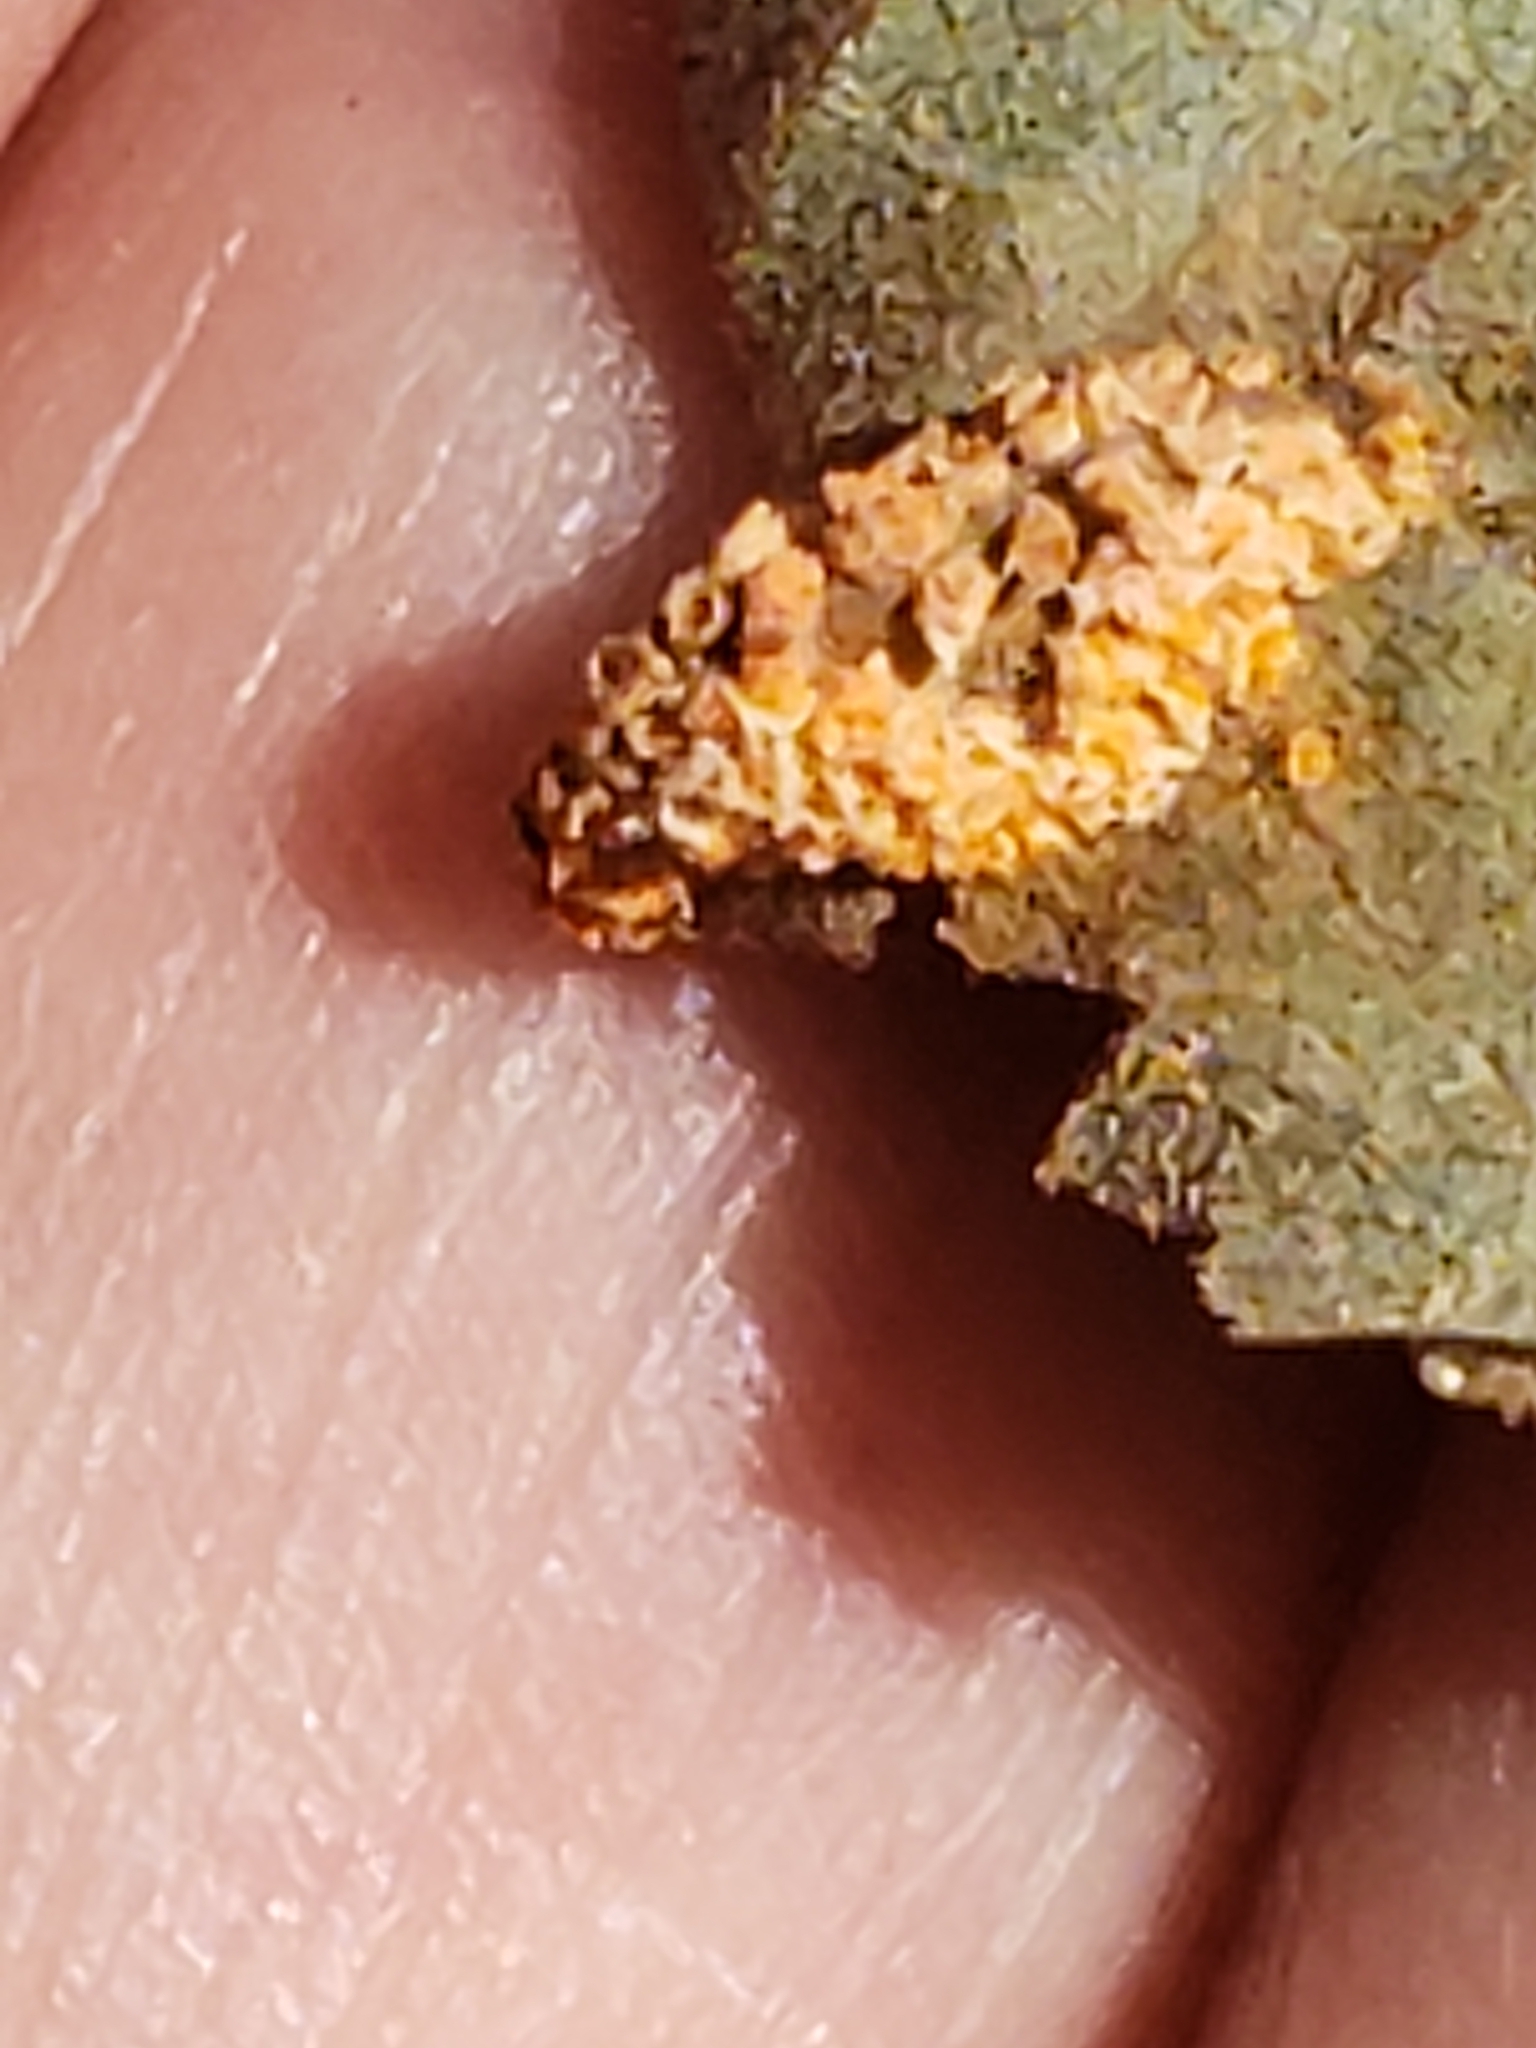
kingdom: Fungi
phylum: Basidiomycota
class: Pucciniomycetes
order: Pucciniales
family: Pucciniaceae
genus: Puccinia
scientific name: Puccinia sparganioidis
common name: Ash rust
